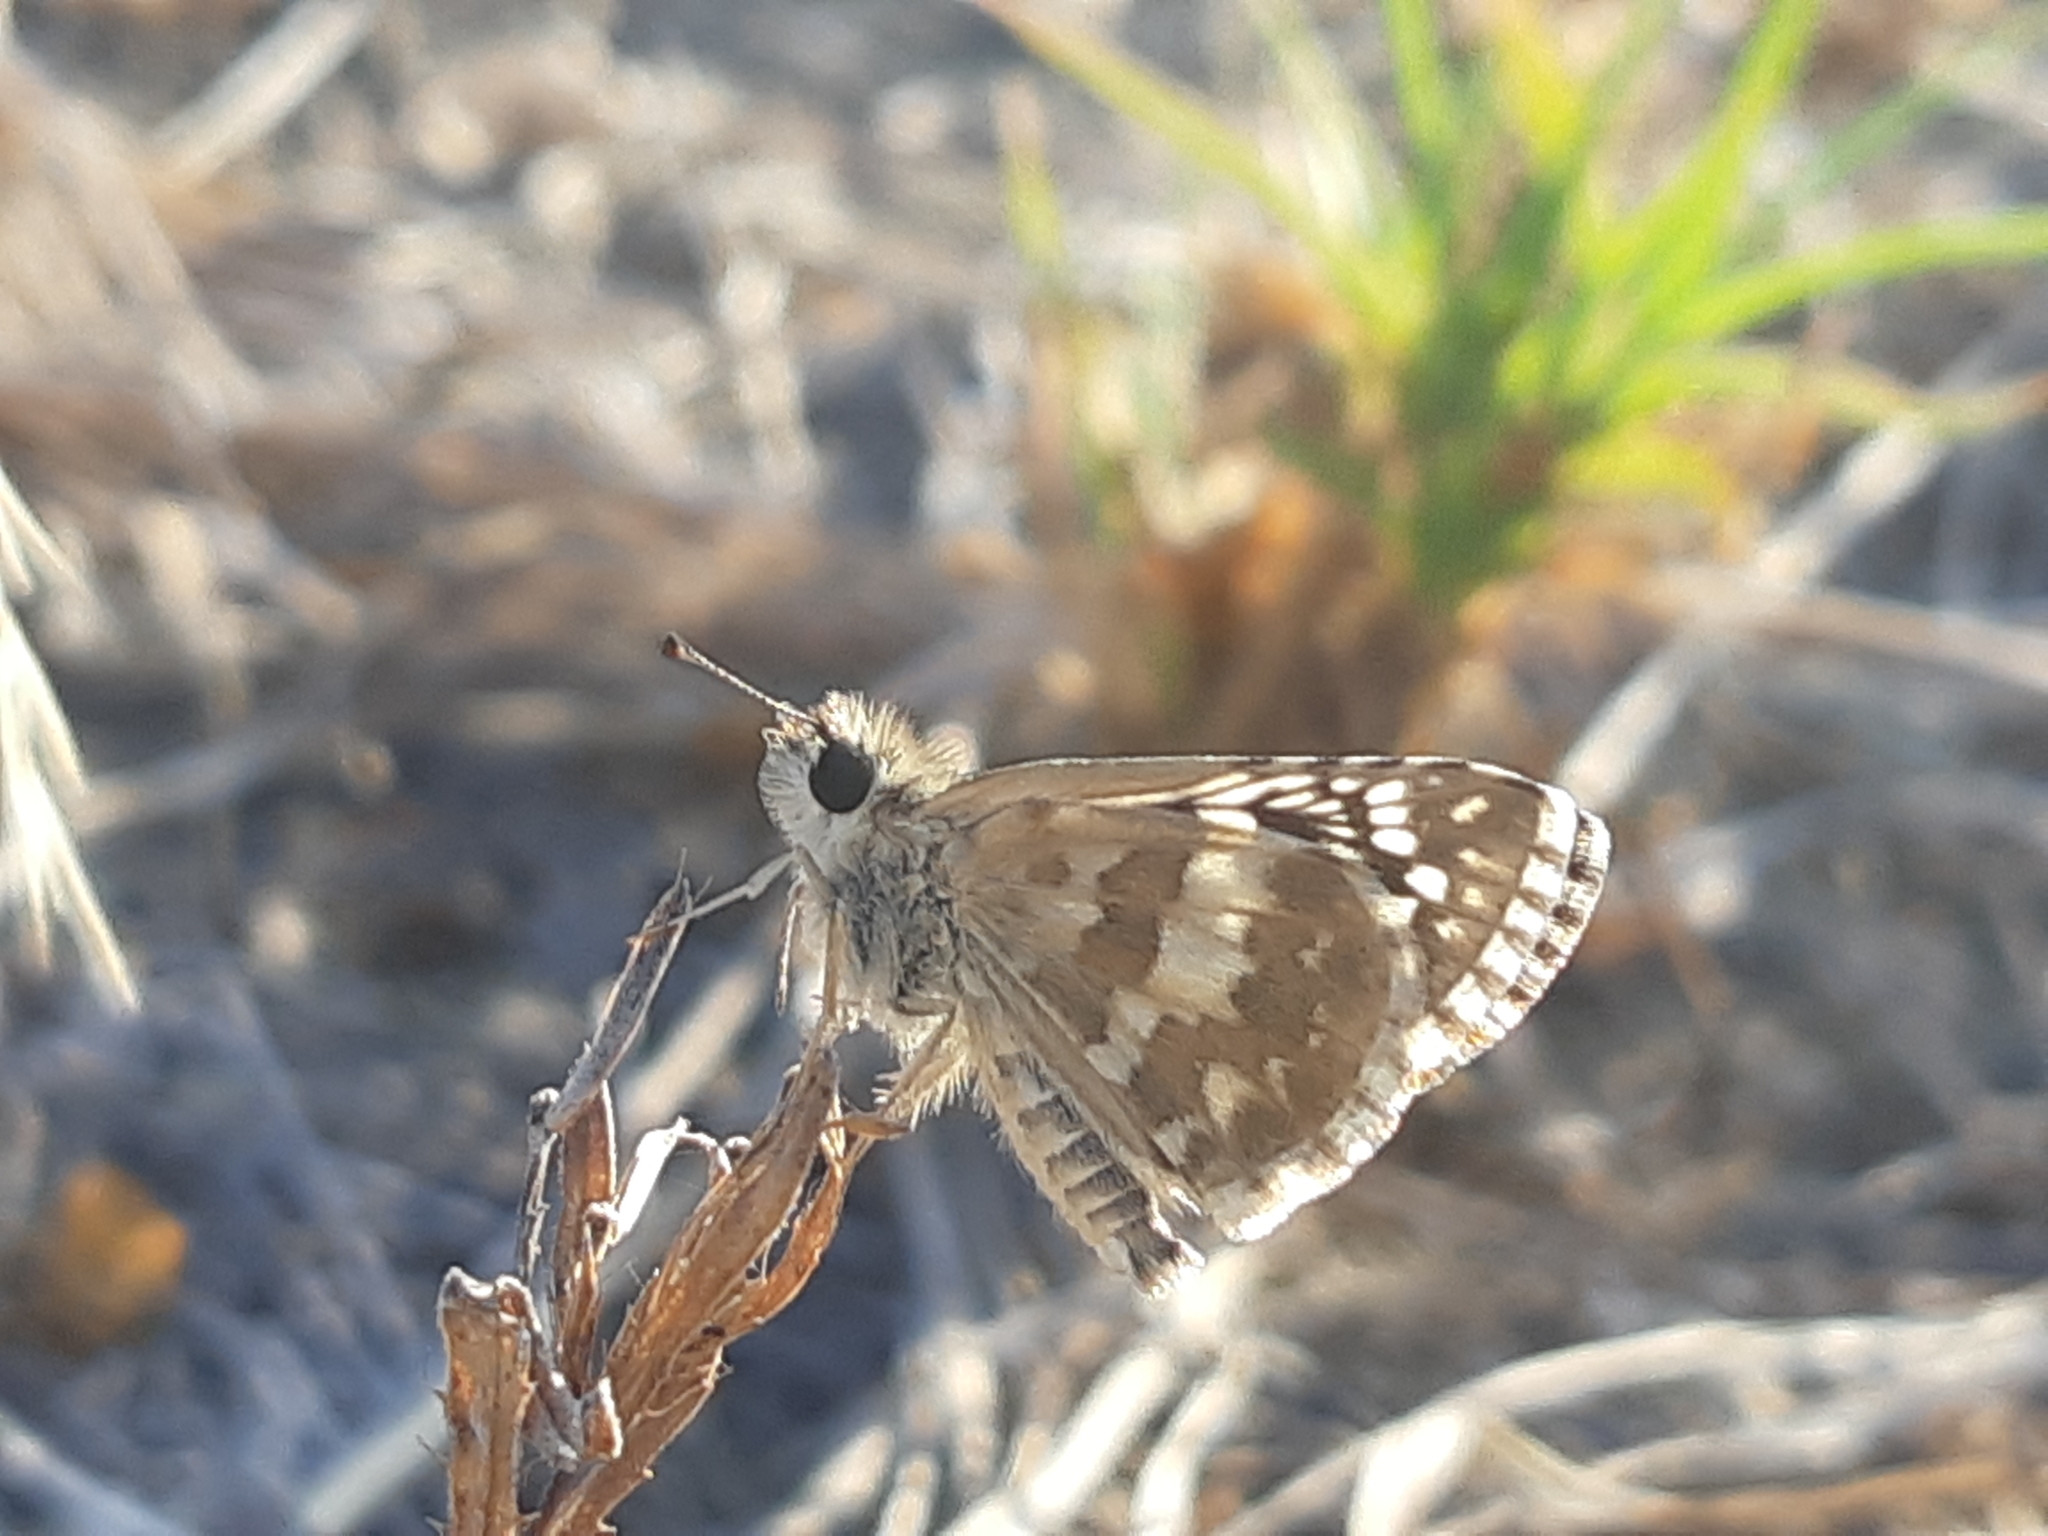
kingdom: Animalia
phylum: Arthropoda
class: Insecta
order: Lepidoptera
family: Hesperiidae
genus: Burnsius
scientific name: Burnsius chloe
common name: Chloe checkered-skipper
